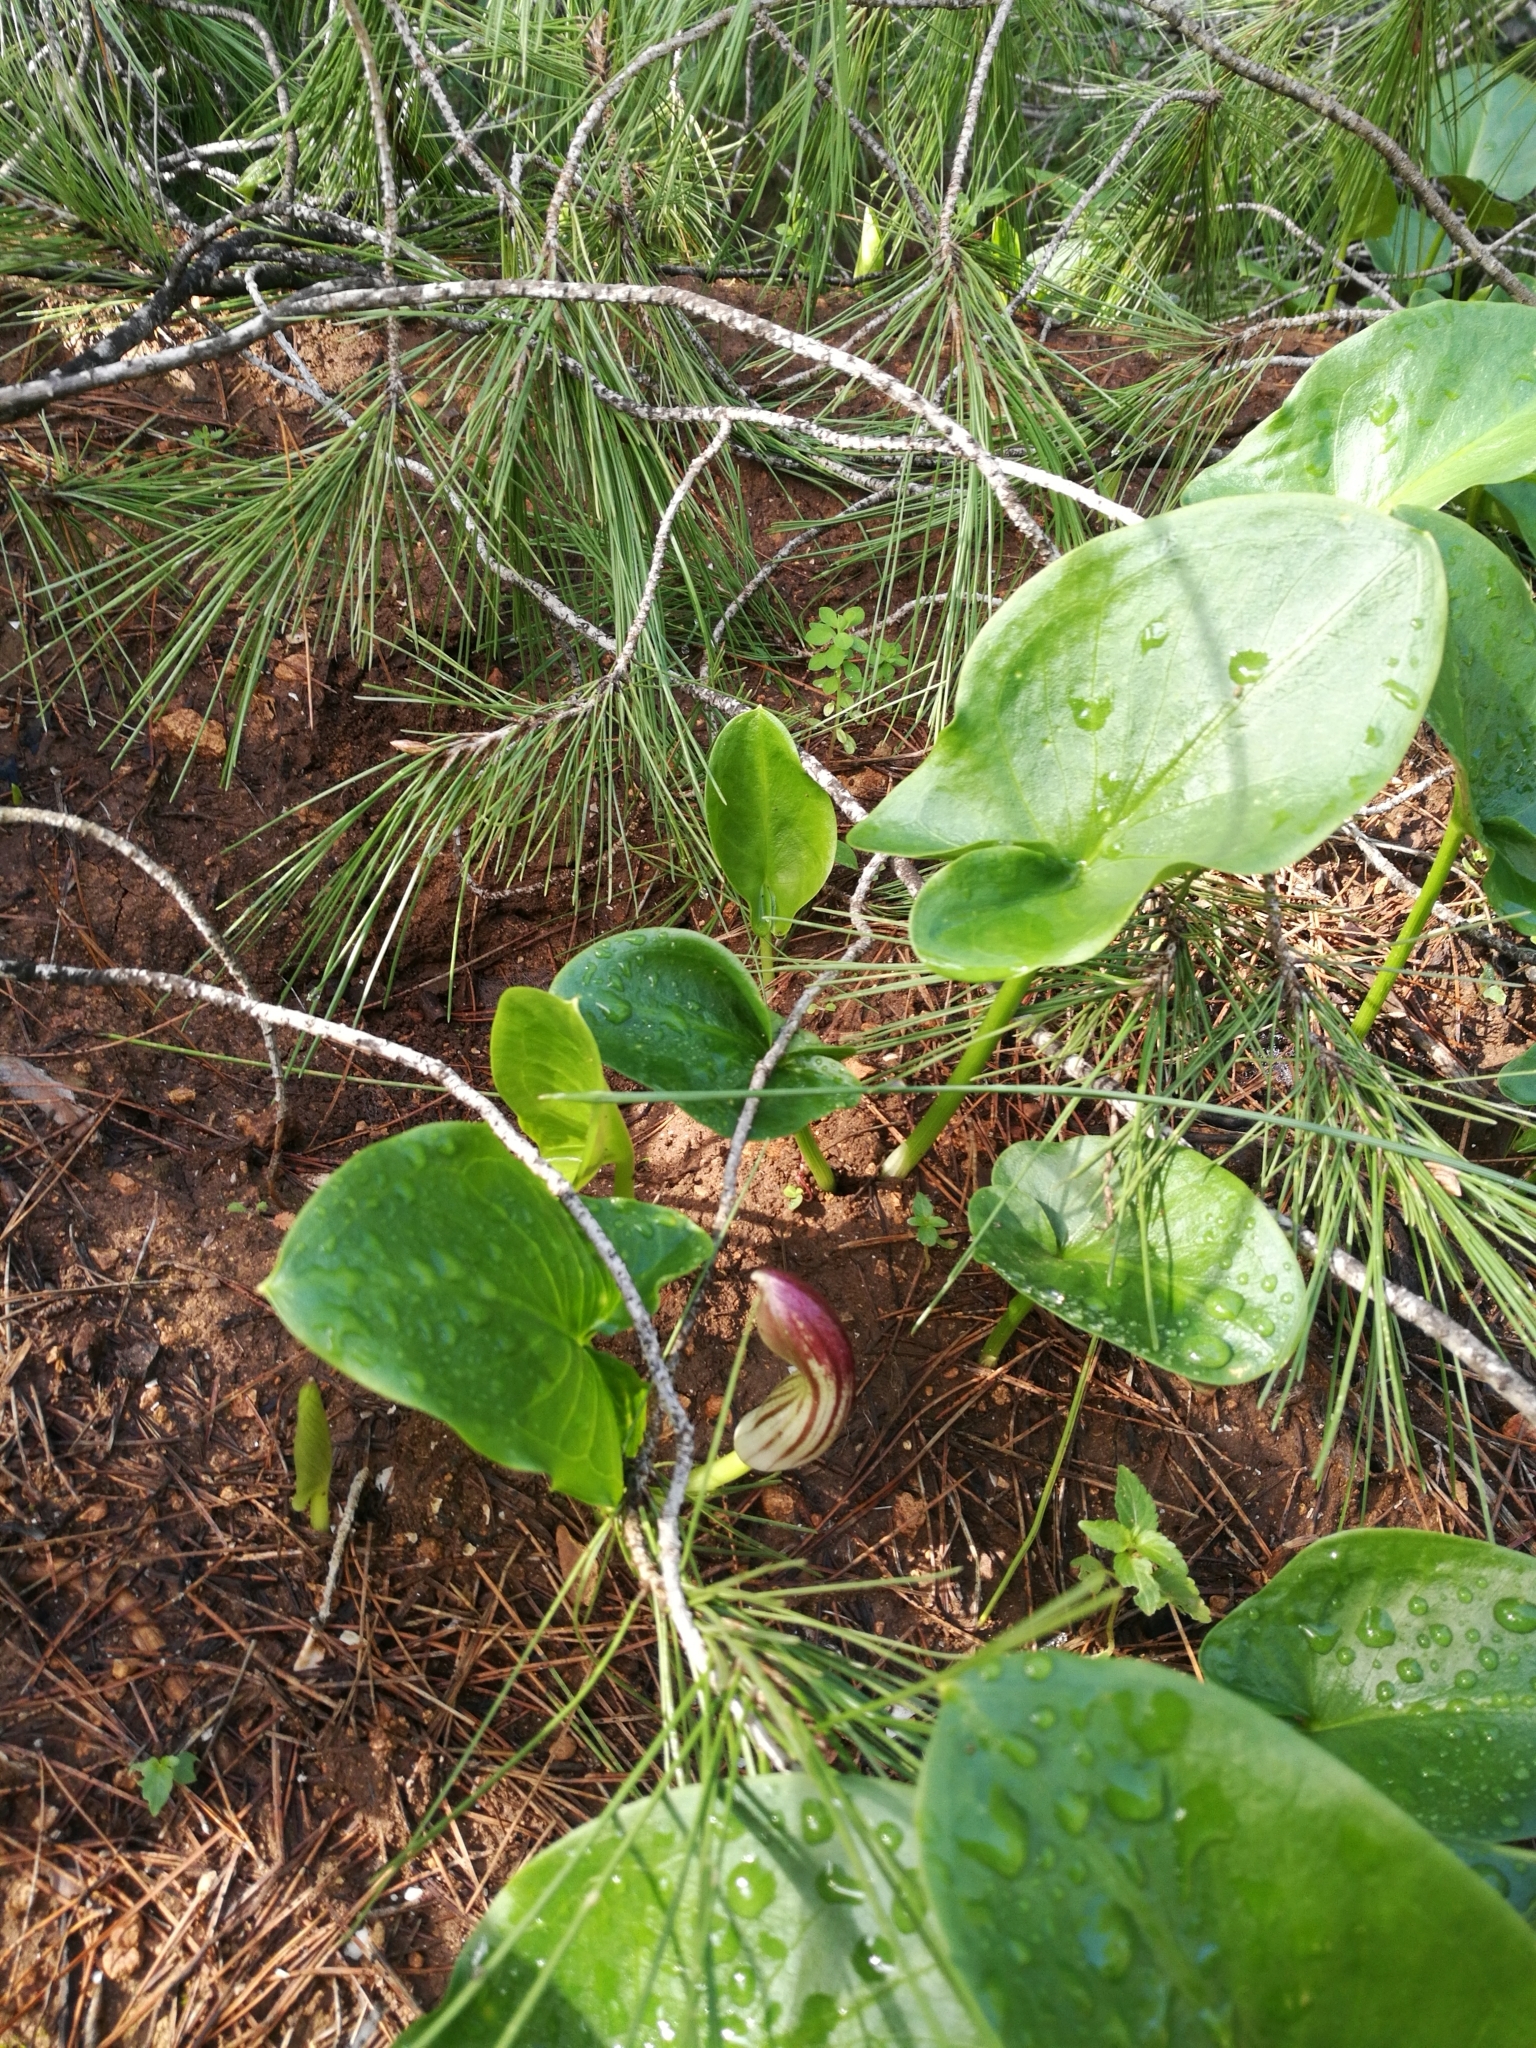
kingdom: Plantae
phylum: Tracheophyta
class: Liliopsida
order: Alismatales
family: Araceae
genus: Arisarum
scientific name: Arisarum simorrhinum
